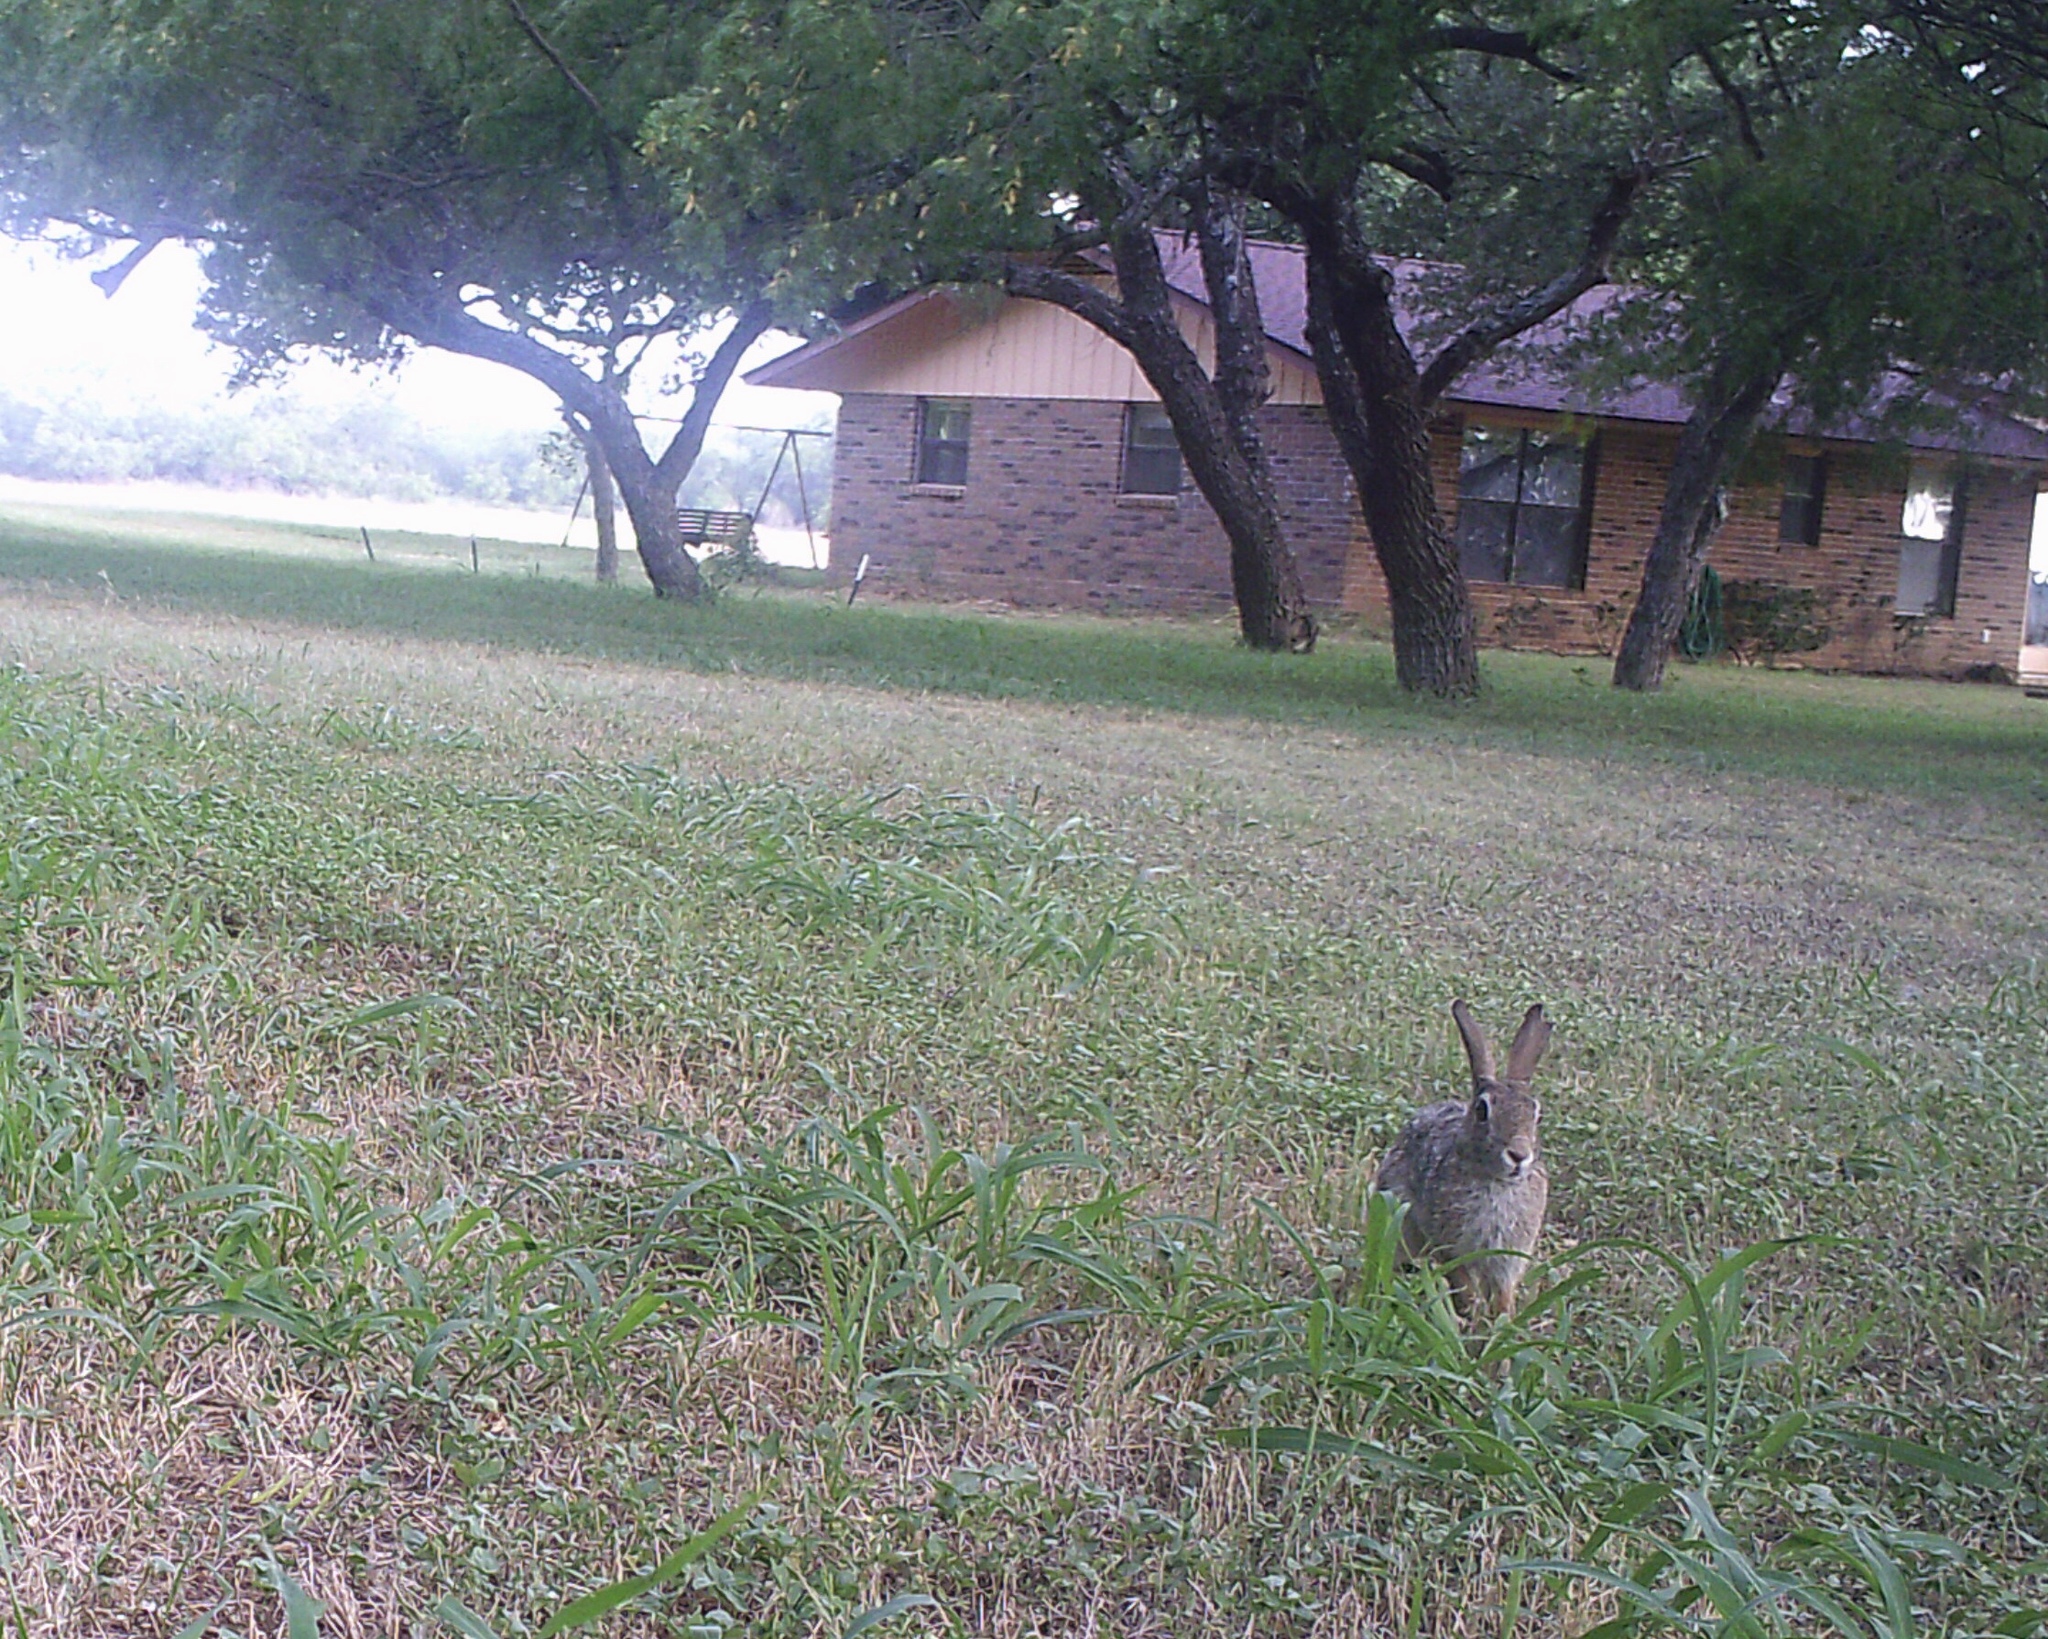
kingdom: Animalia
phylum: Chordata
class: Mammalia
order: Lagomorpha
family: Leporidae
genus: Sylvilagus
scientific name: Sylvilagus floridanus
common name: Eastern cottontail
